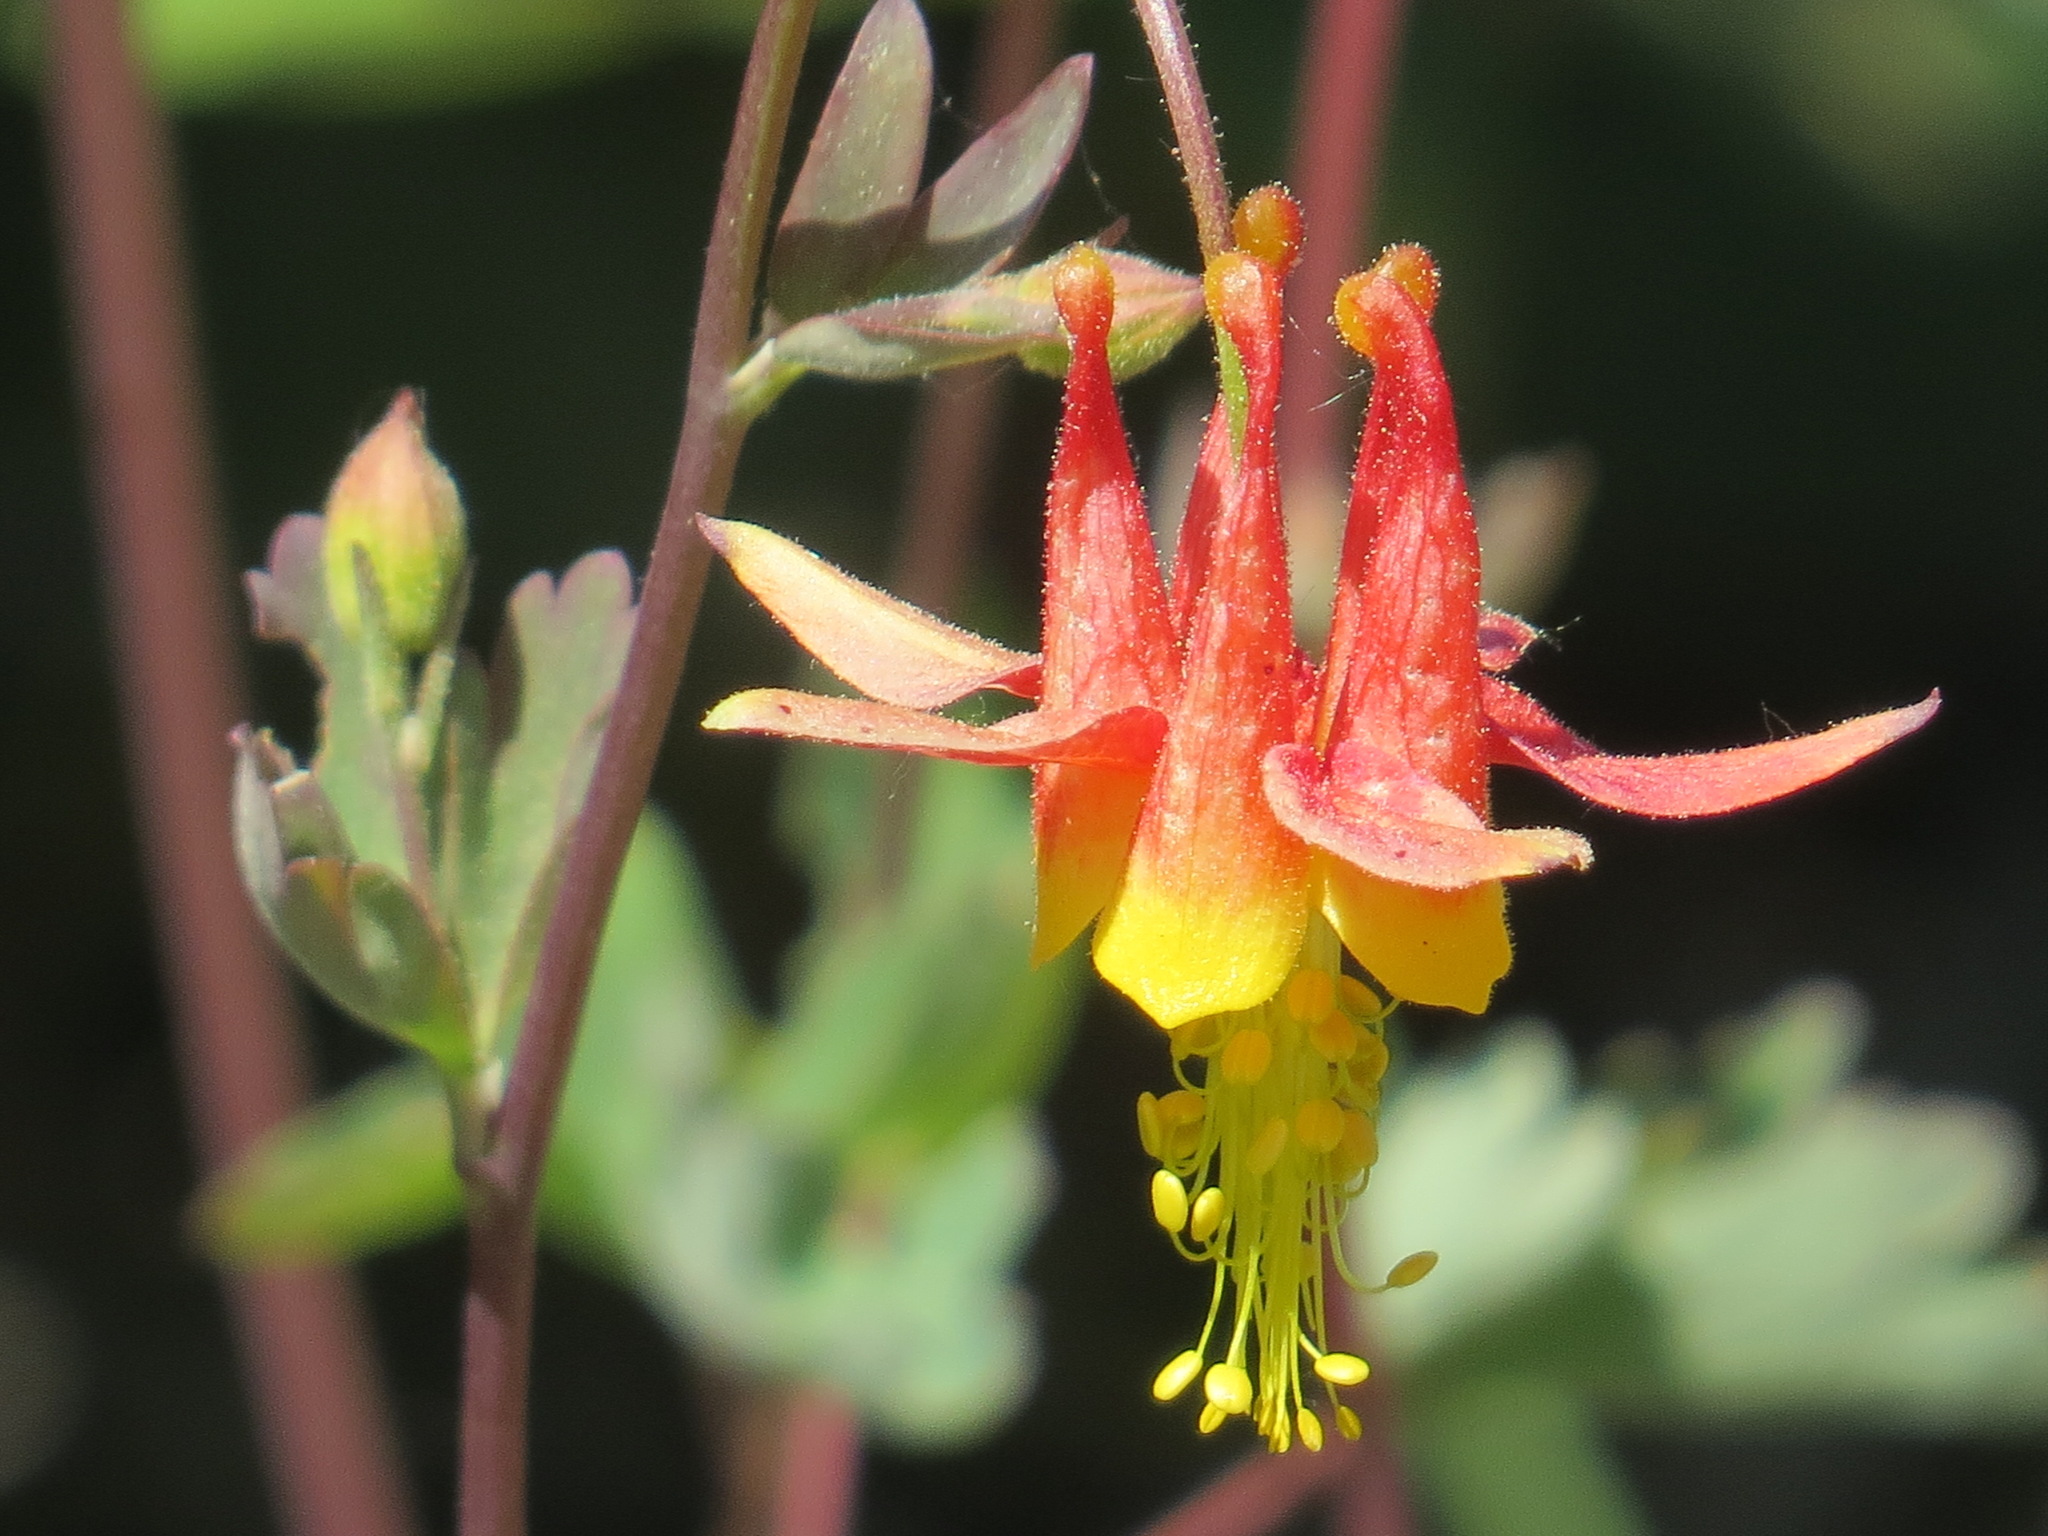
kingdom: Plantae
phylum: Tracheophyta
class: Magnoliopsida
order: Ranunculales
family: Ranunculaceae
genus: Aquilegia
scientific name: Aquilegia formosa
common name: Sitka columbine
